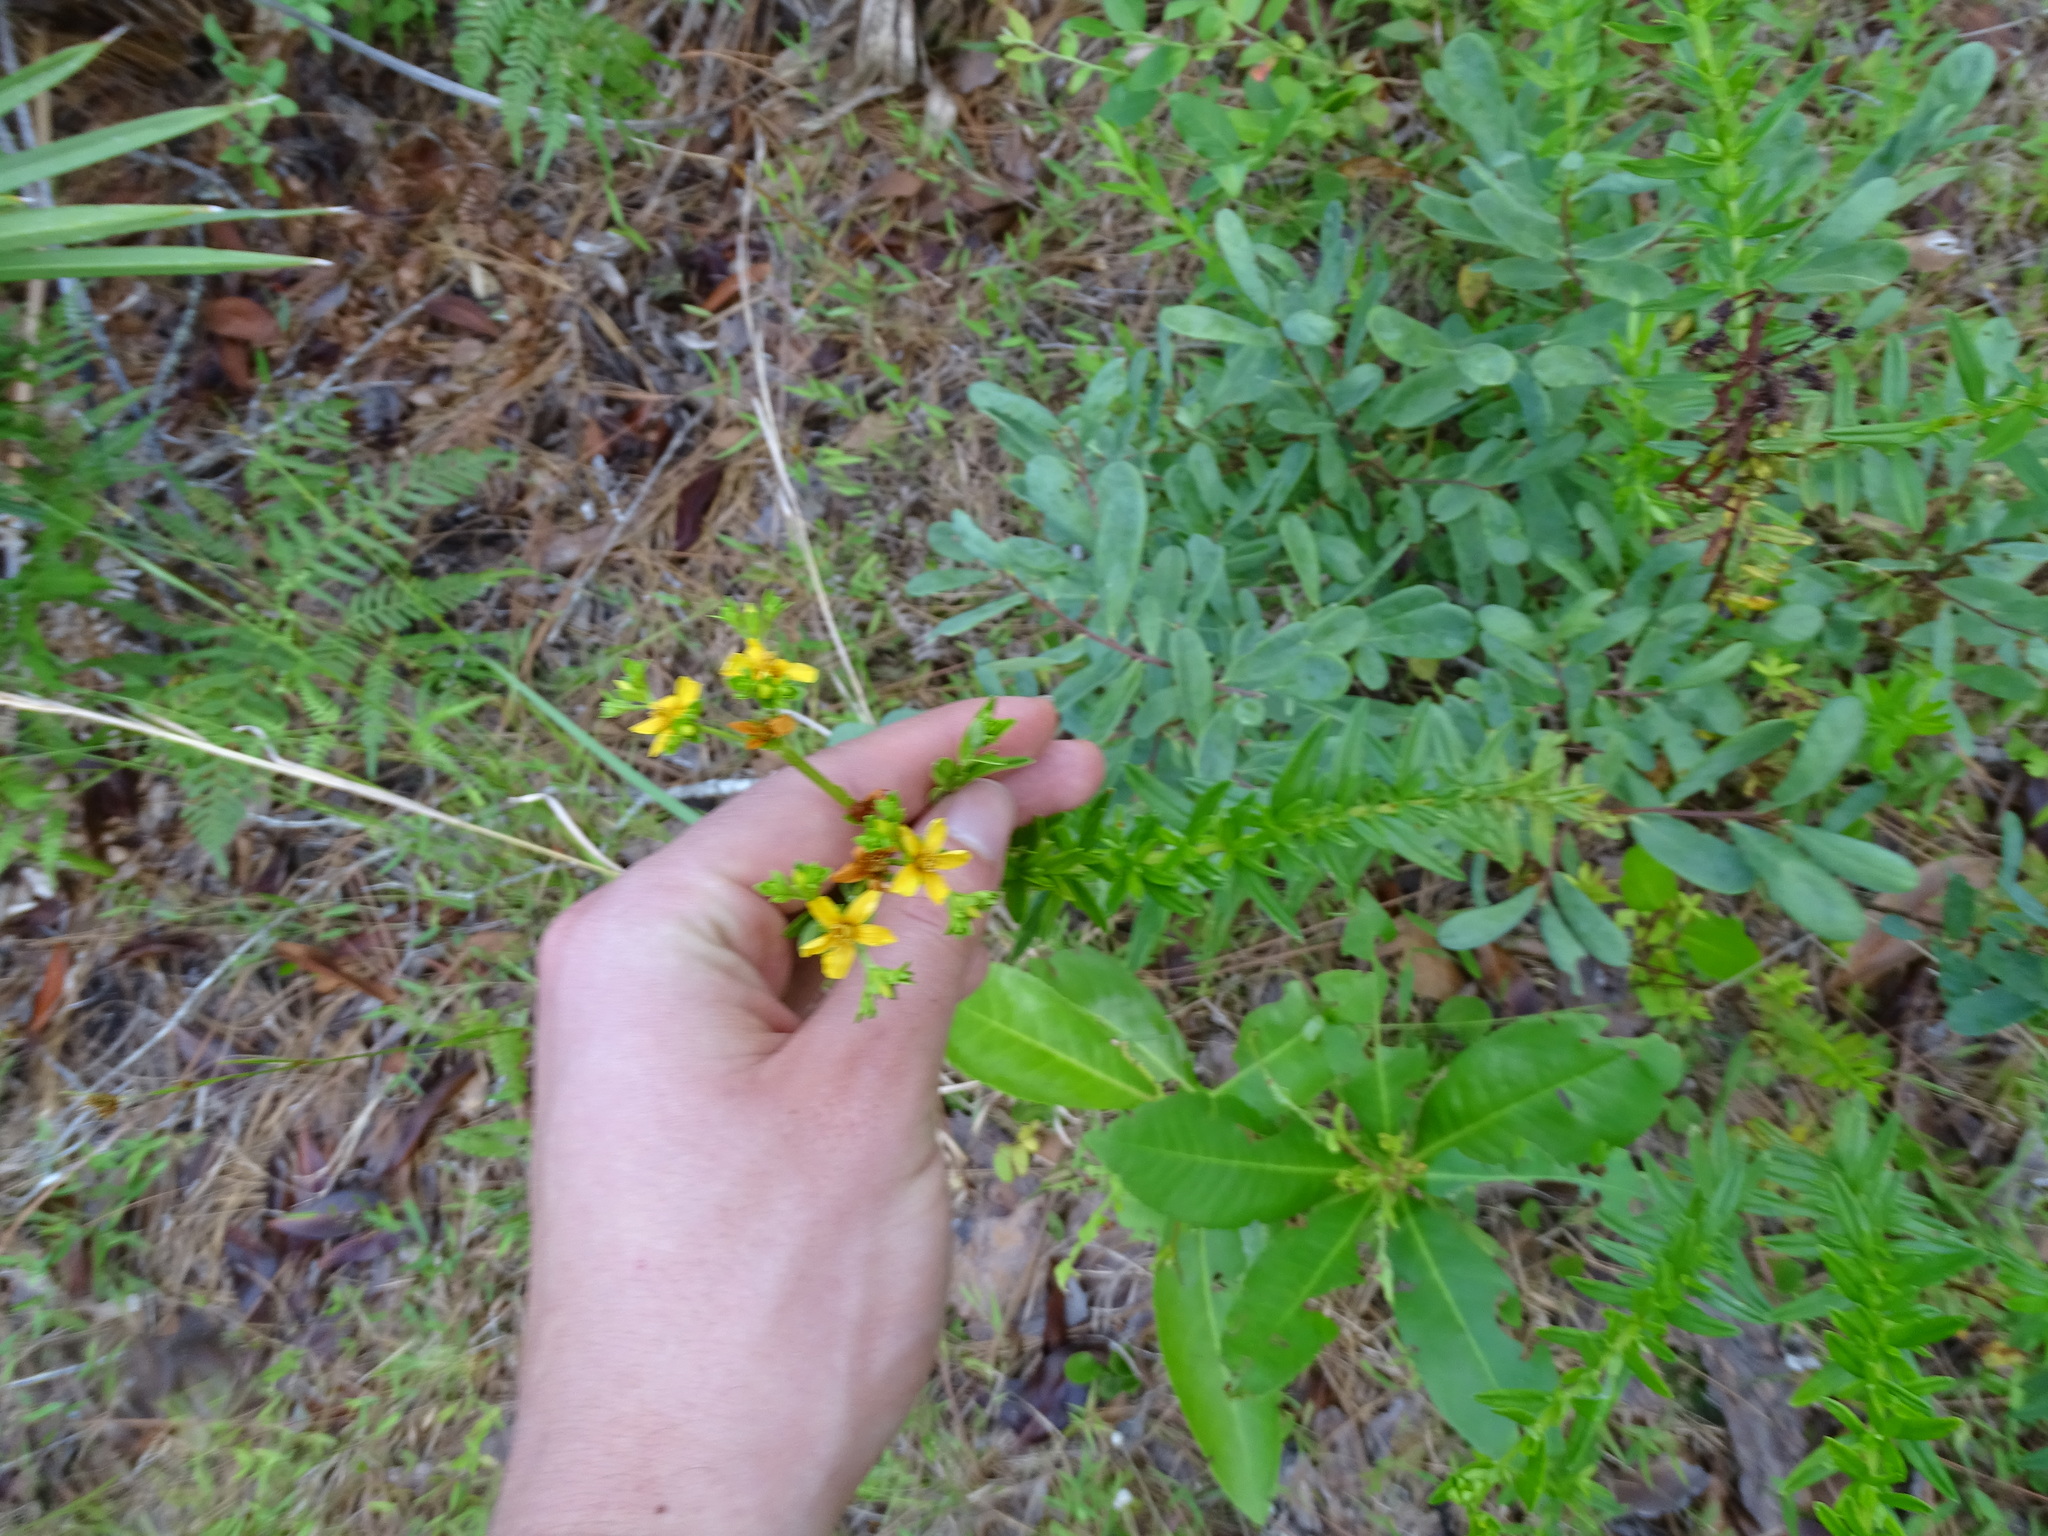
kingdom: Plantae
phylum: Tracheophyta
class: Magnoliopsida
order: Malpighiales
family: Hypericaceae
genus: Hypericum
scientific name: Hypericum cistifolium
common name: Round-pod st. john's-wort
